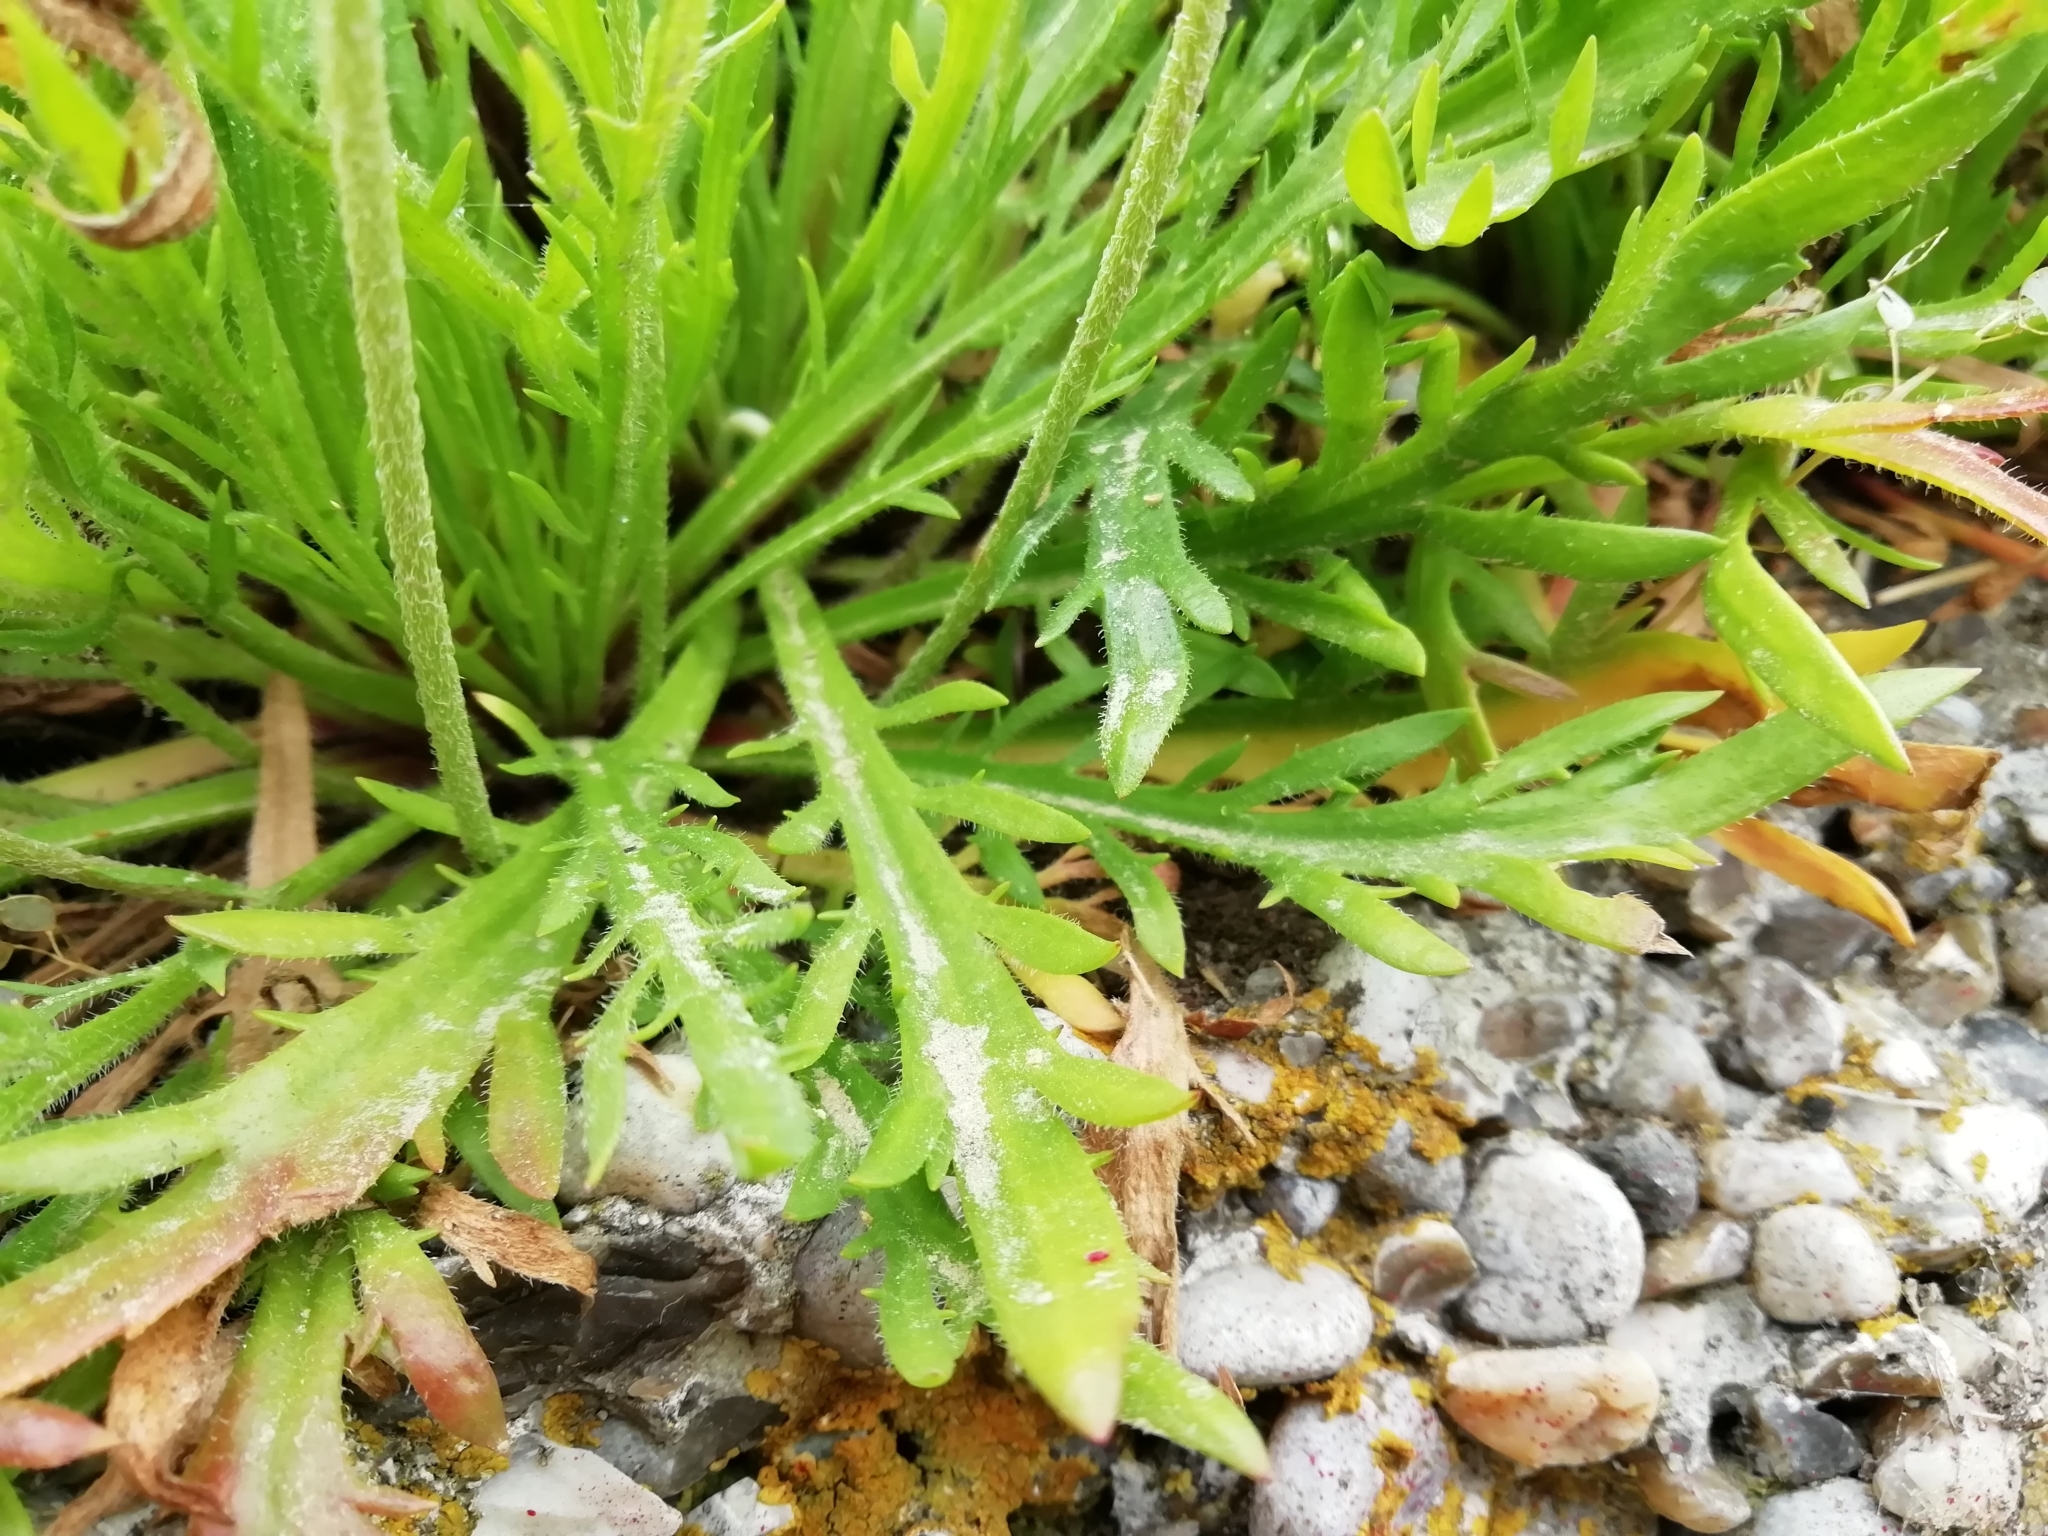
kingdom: Plantae
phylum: Tracheophyta
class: Magnoliopsida
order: Lamiales
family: Plantaginaceae
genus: Plantago
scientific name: Plantago coronopus
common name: Buck's-horn plantain
